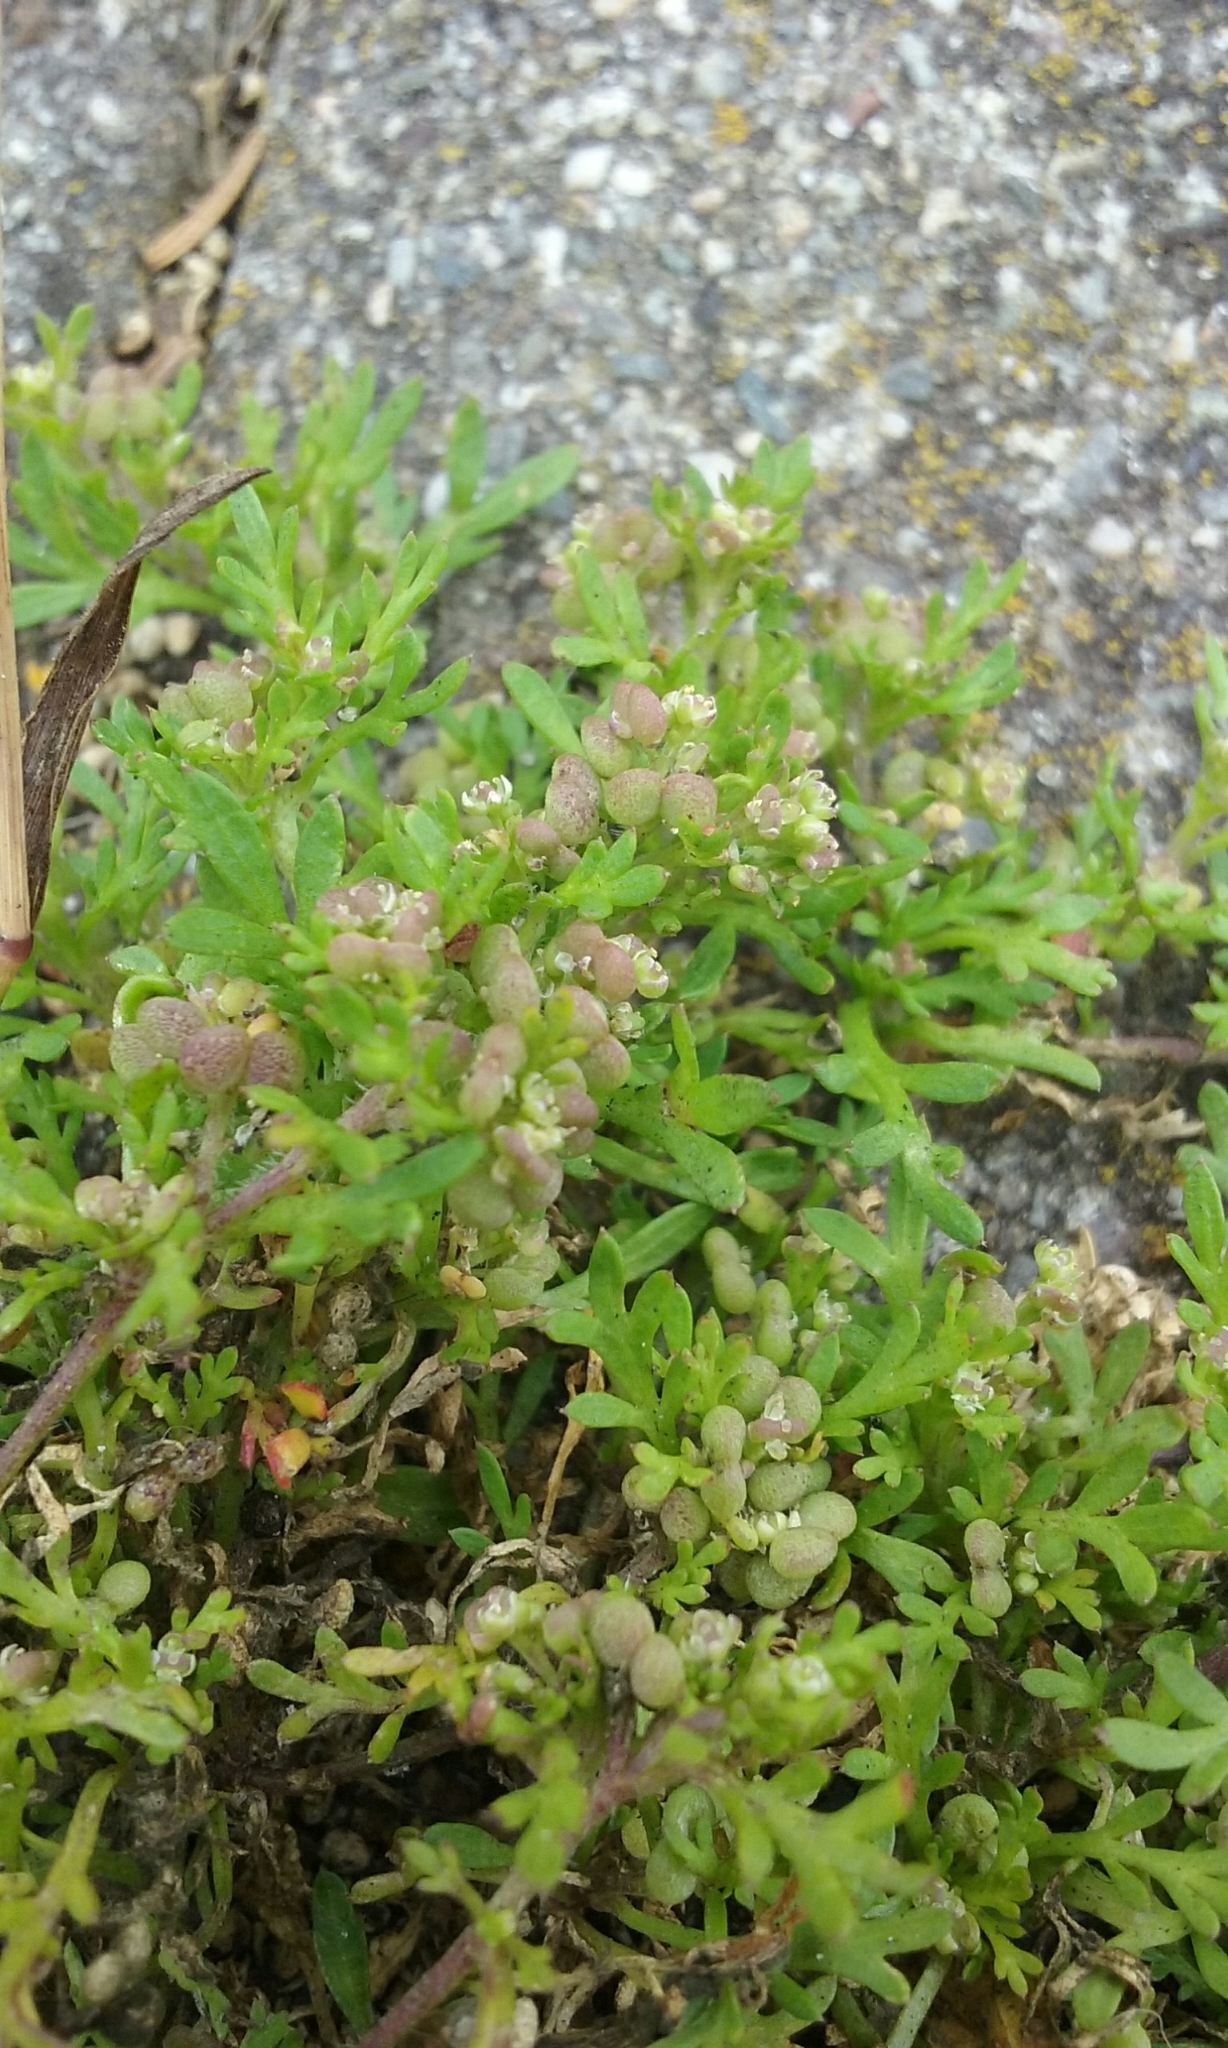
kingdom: Plantae
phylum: Tracheophyta
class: Magnoliopsida
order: Brassicales
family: Brassicaceae
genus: Lepidium
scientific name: Lepidium didymum
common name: Lesser swinecress
